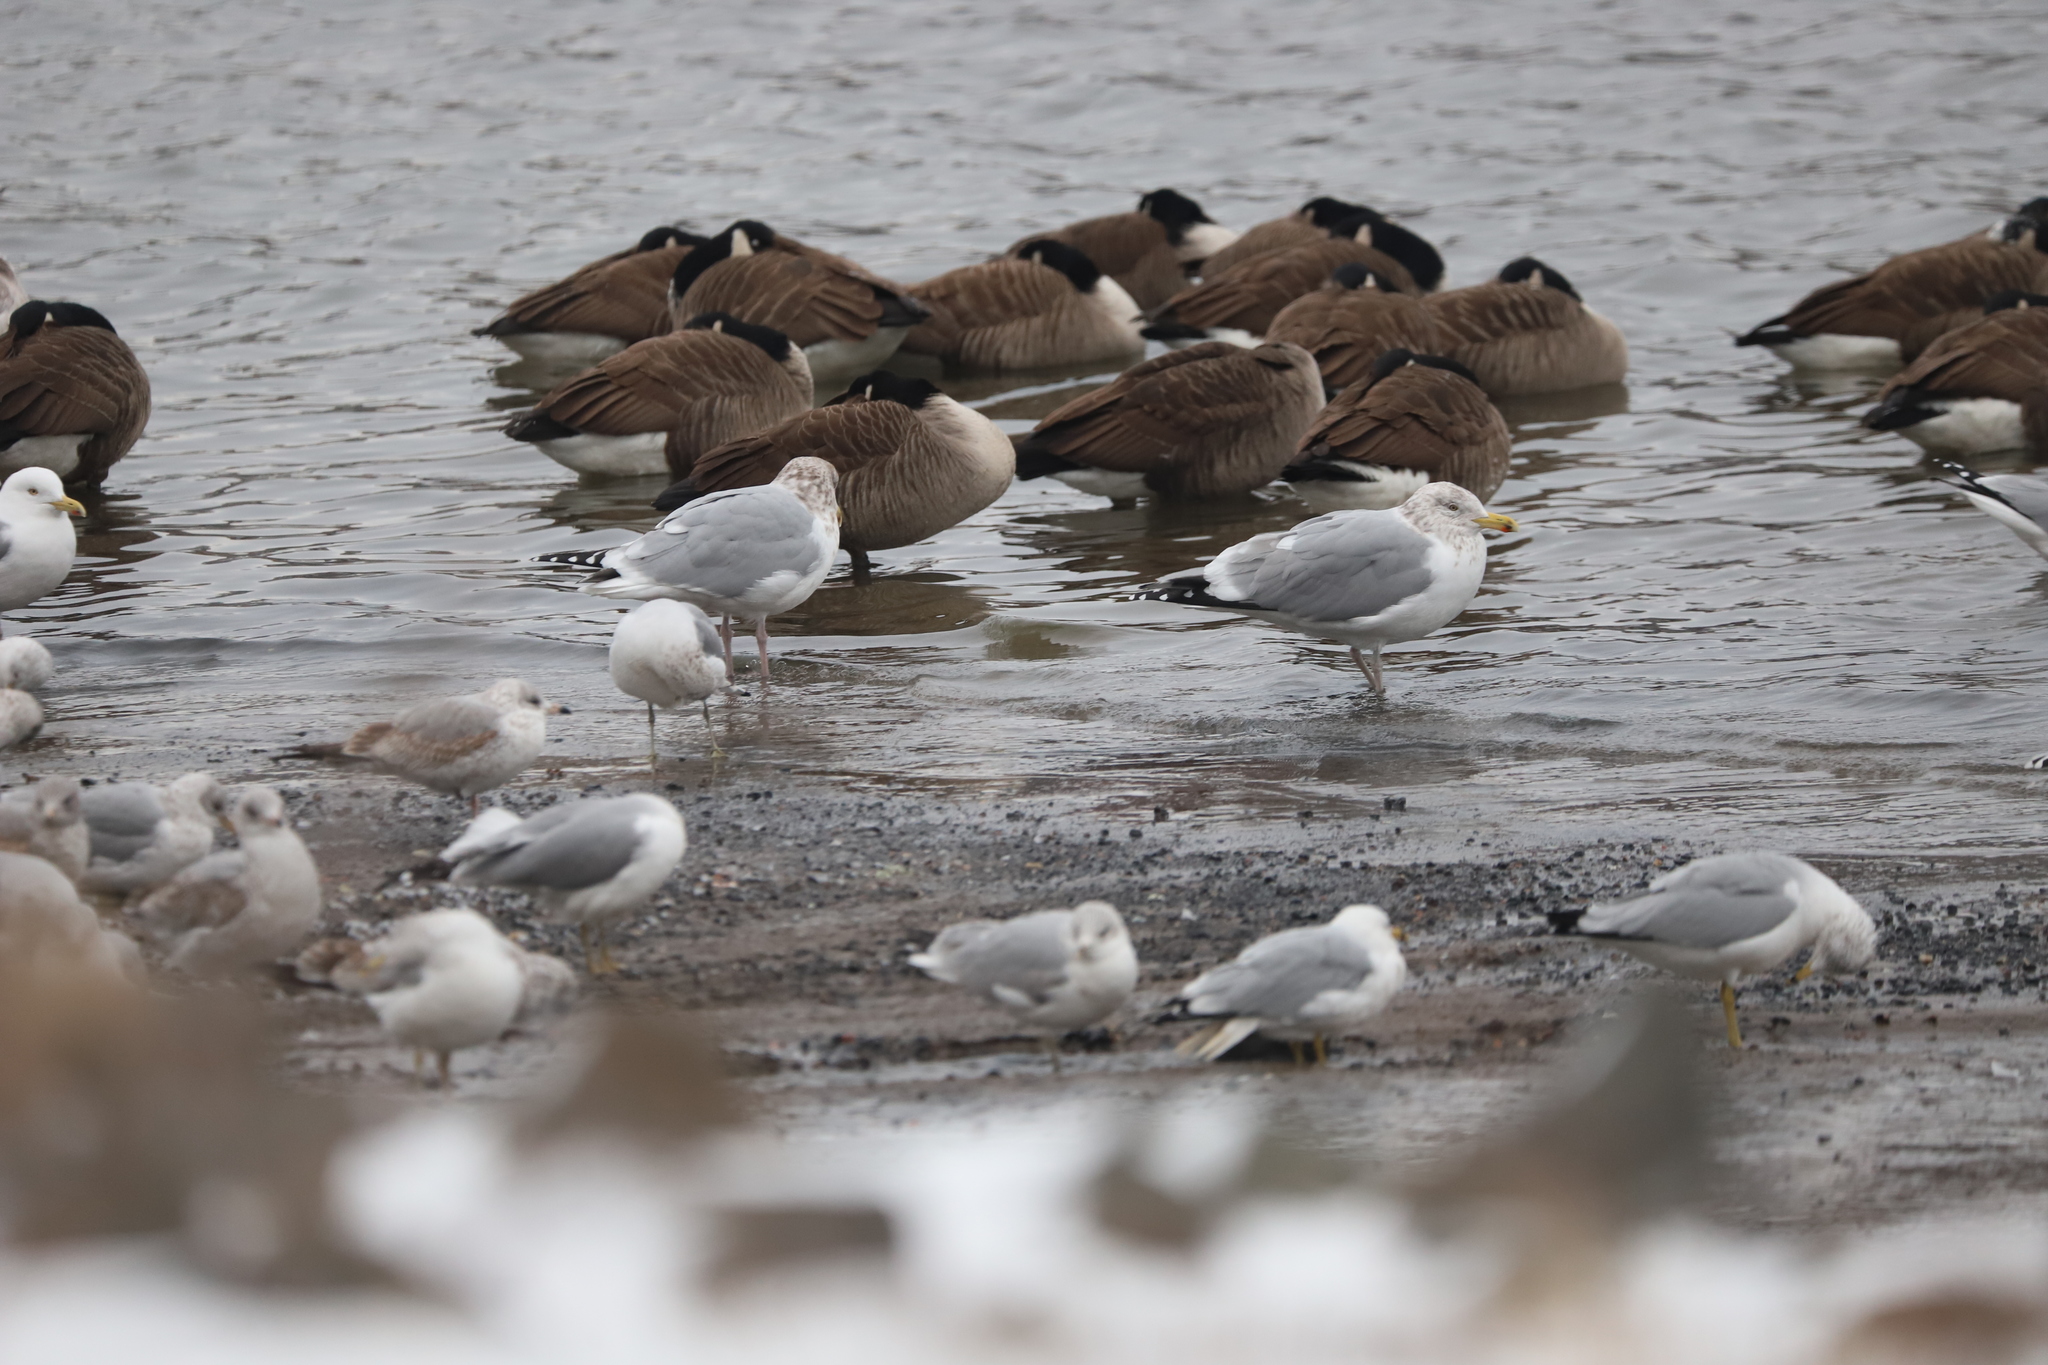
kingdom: Animalia
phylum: Chordata
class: Aves
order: Anseriformes
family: Anatidae
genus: Branta
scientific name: Branta canadensis
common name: Canada goose
